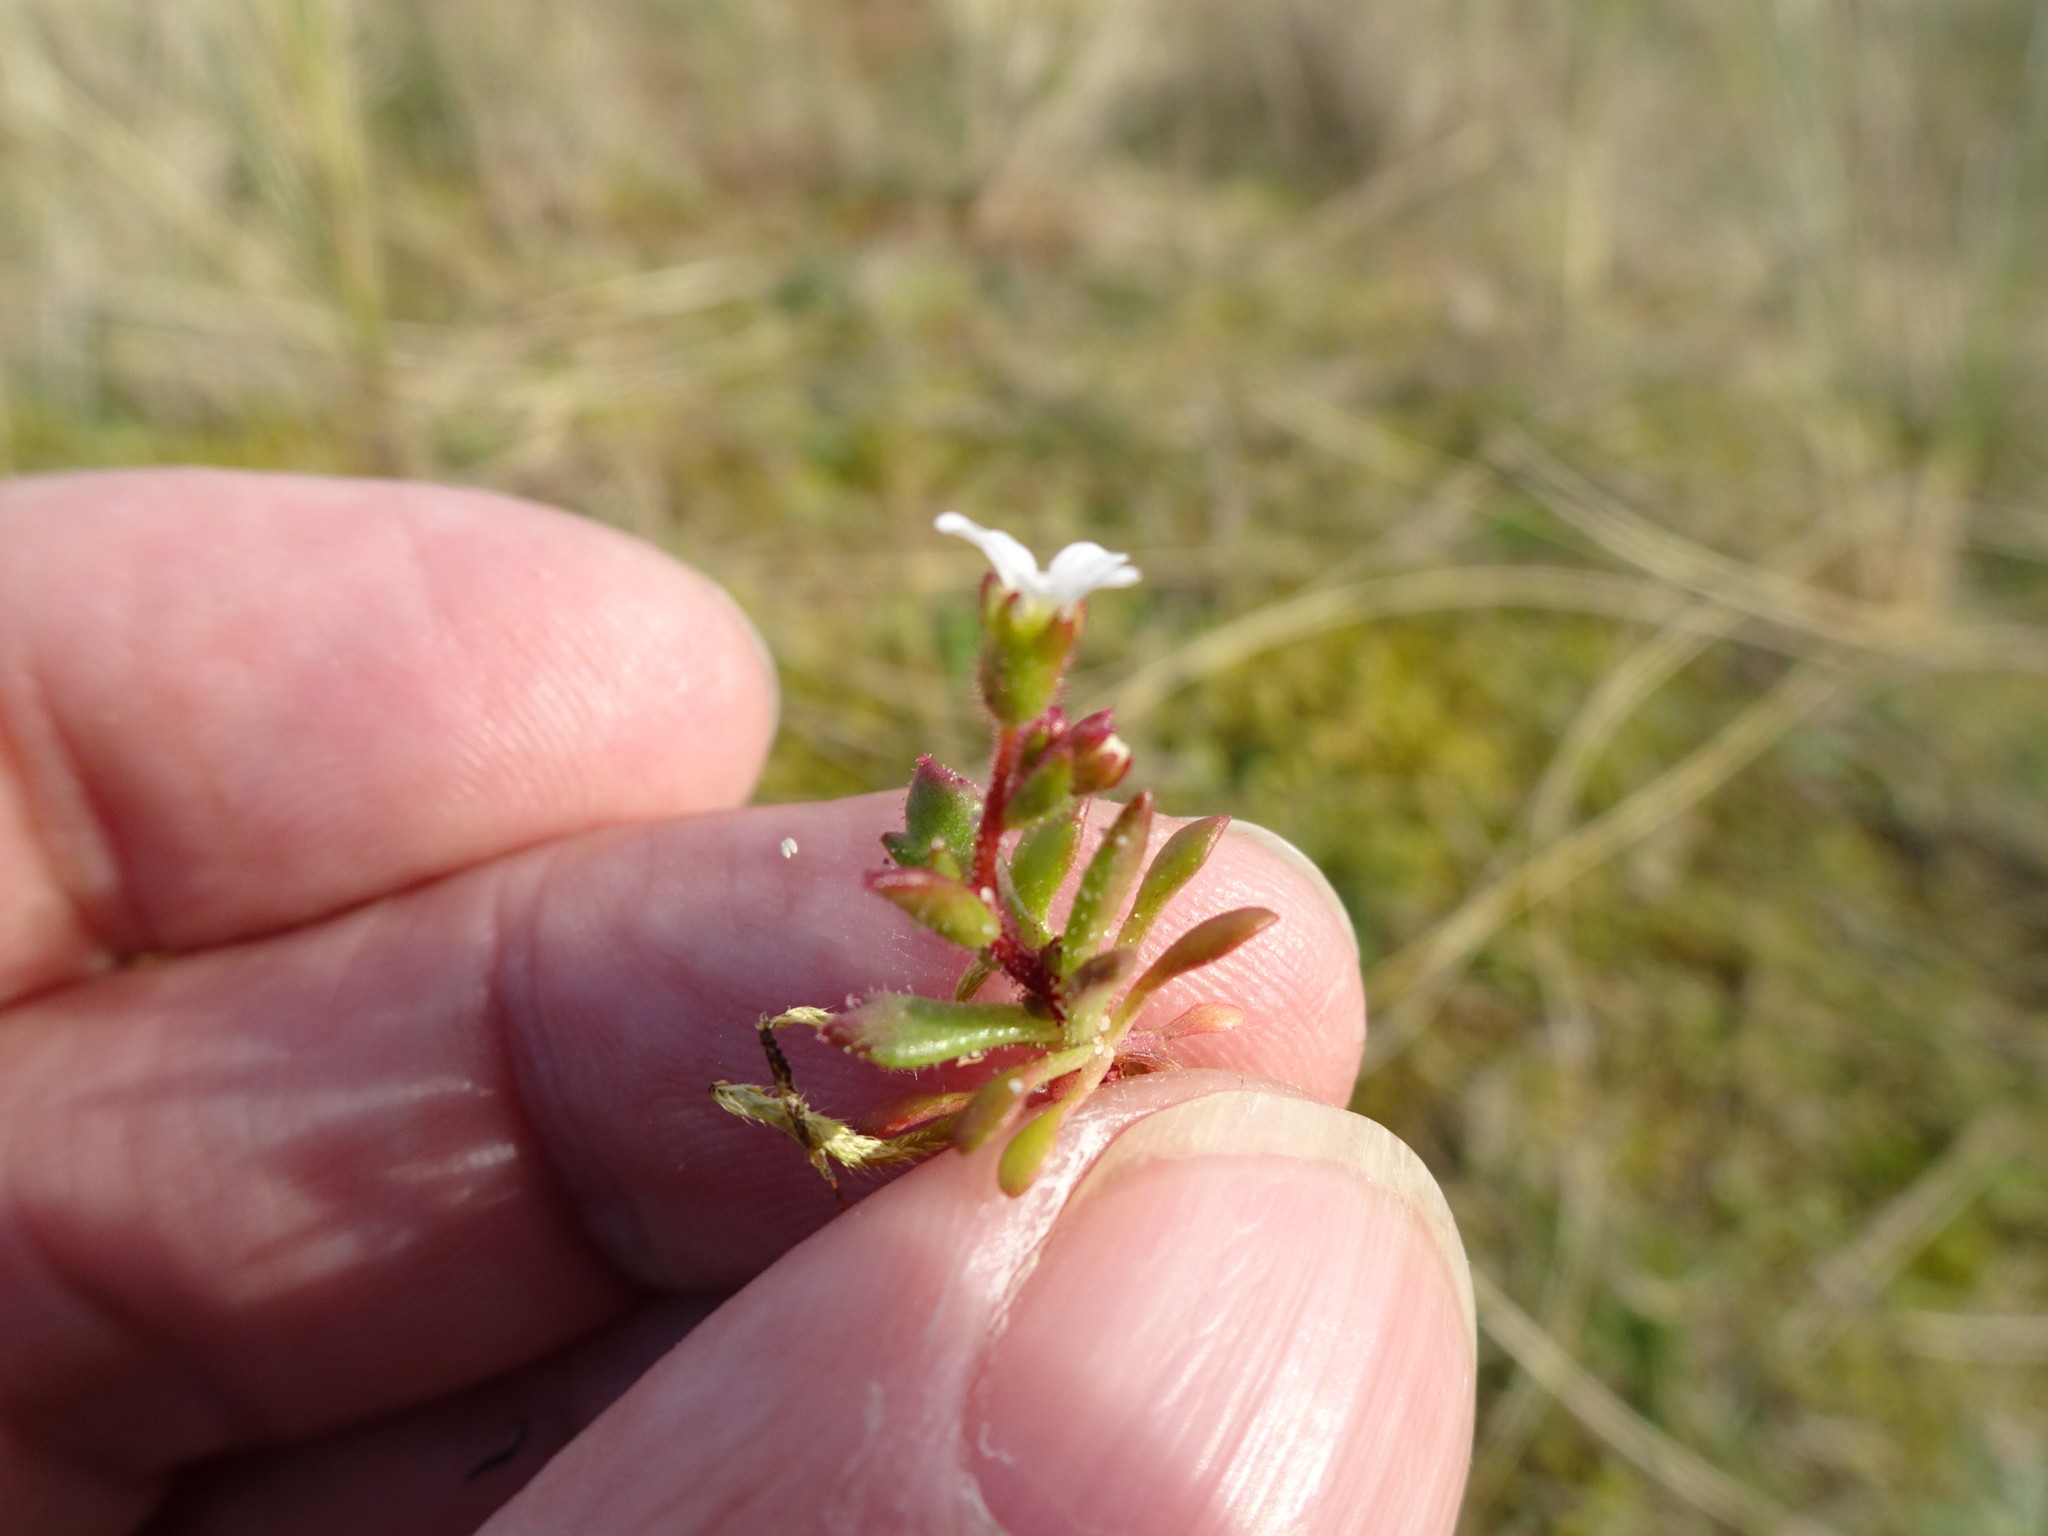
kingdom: Plantae
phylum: Tracheophyta
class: Magnoliopsida
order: Saxifragales
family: Saxifragaceae
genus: Saxifraga
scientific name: Saxifraga tridactylites
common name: Rue-leaved saxifrage
